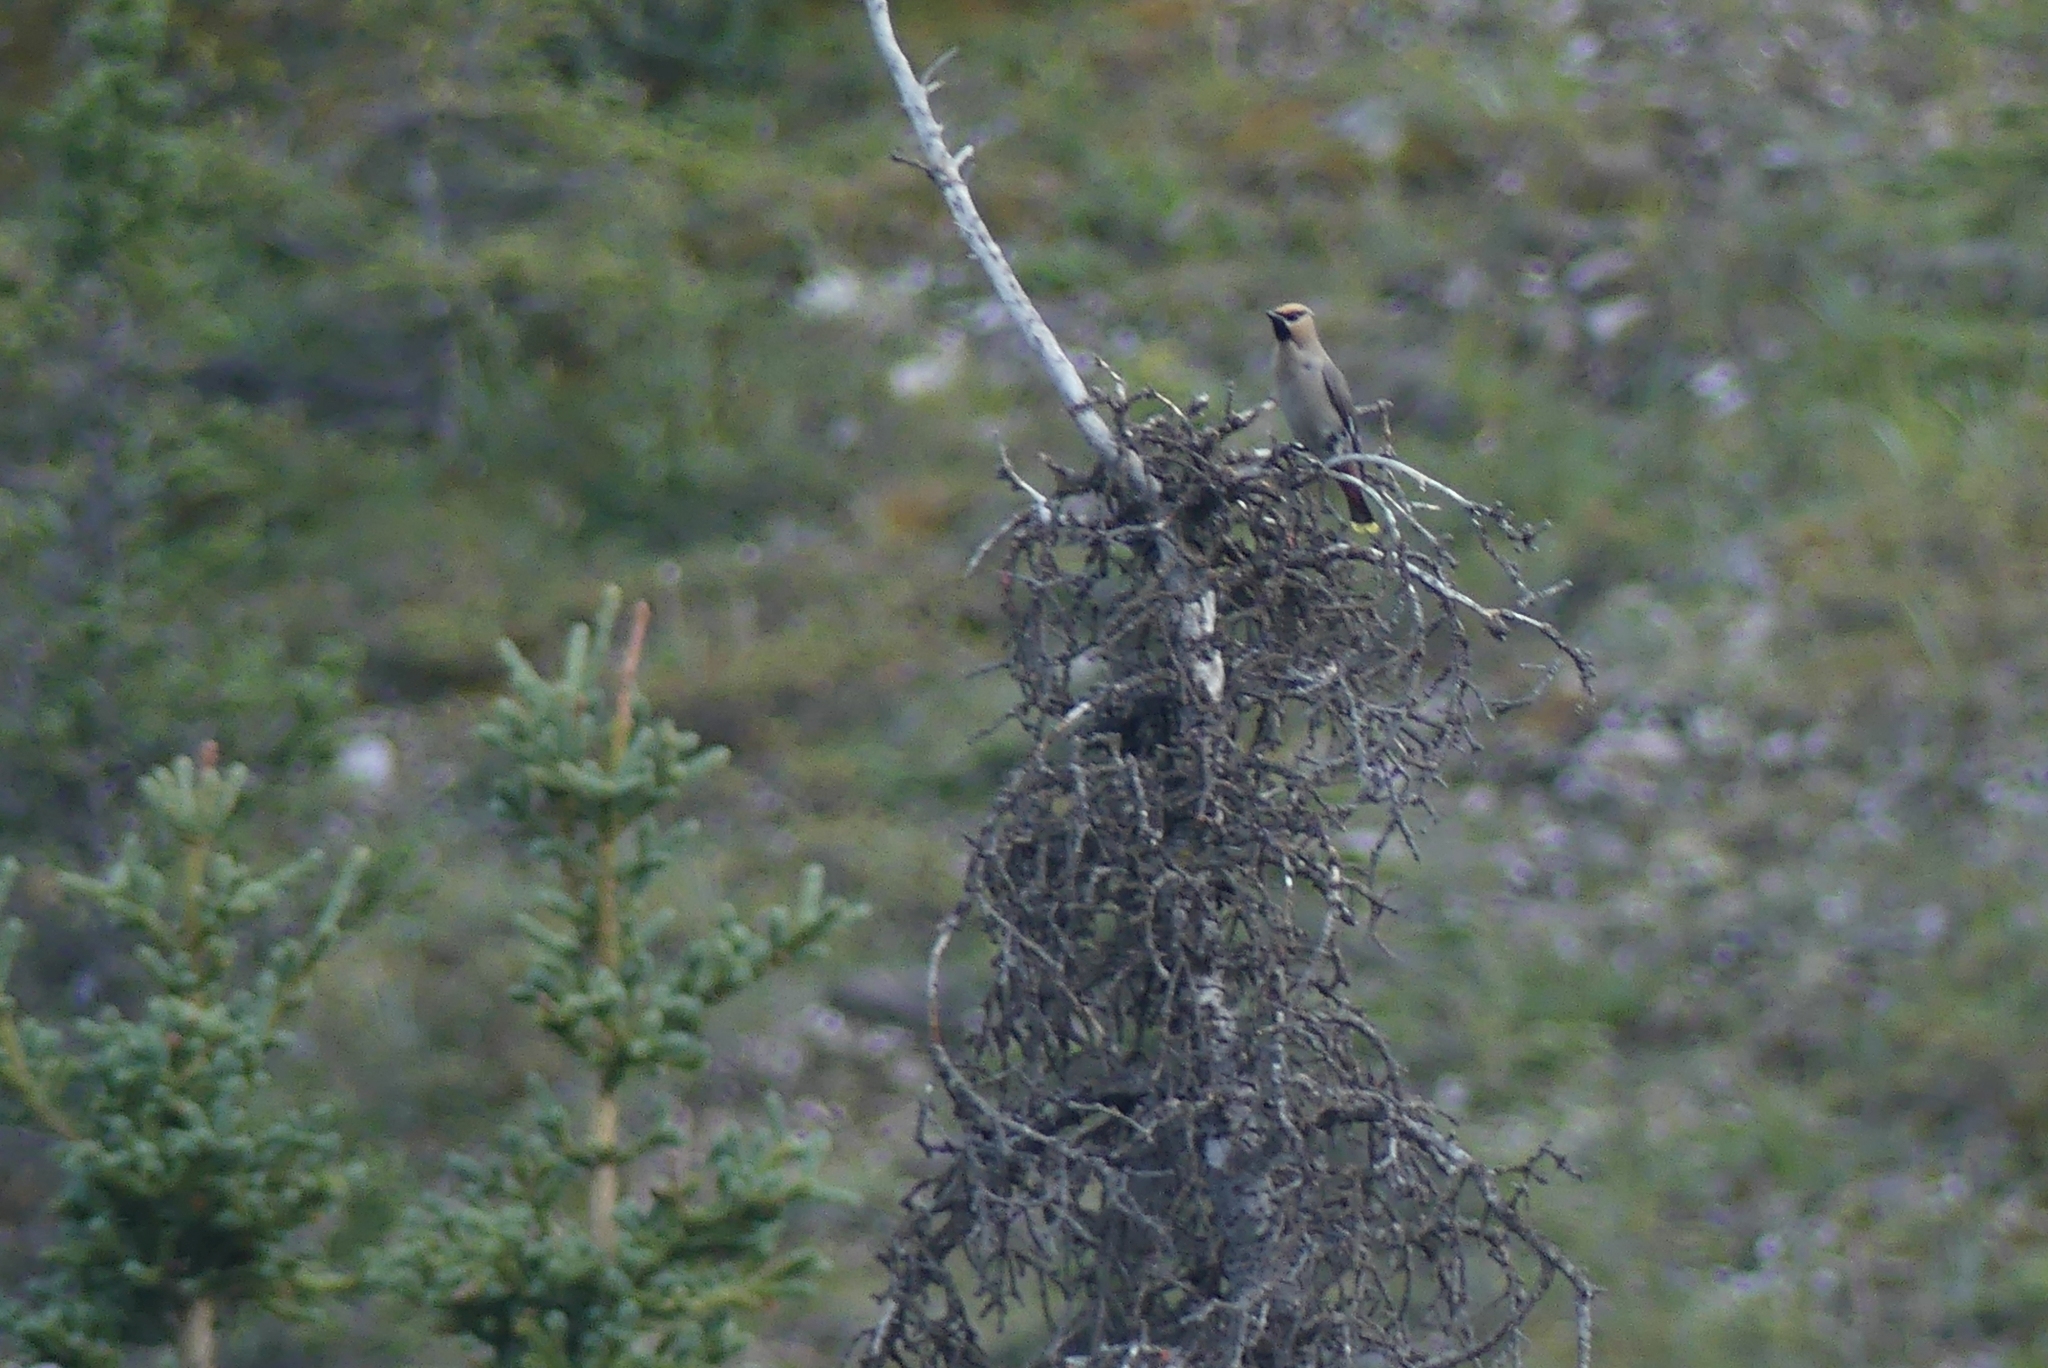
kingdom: Animalia
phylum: Chordata
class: Aves
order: Passeriformes
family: Bombycillidae
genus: Bombycilla
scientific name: Bombycilla garrulus
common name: Bohemian waxwing
